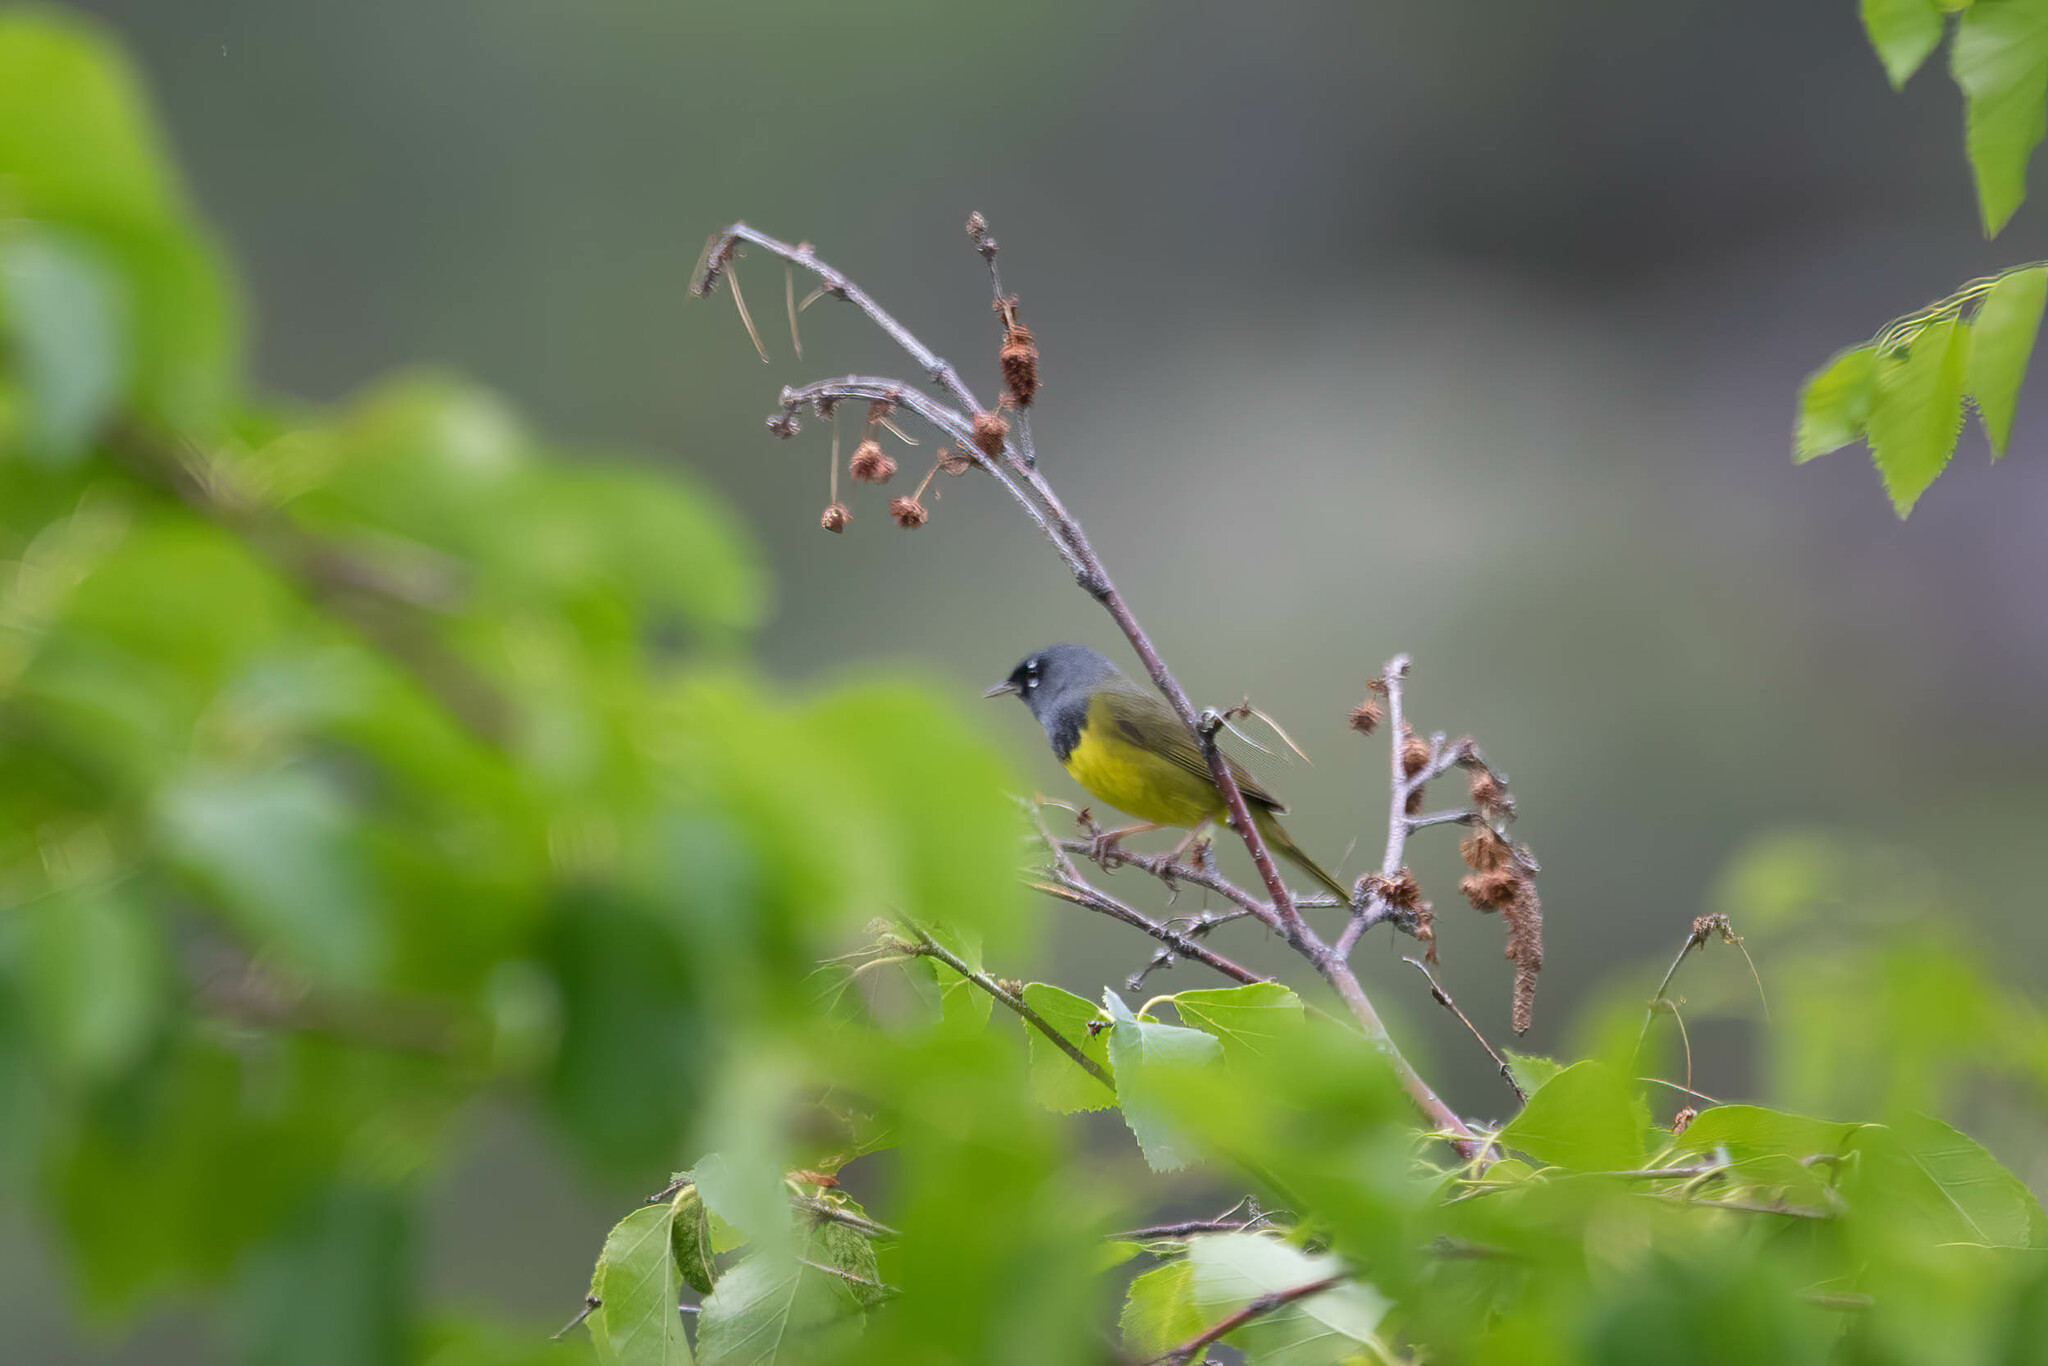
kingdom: Animalia
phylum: Chordata
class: Aves
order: Passeriformes
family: Parulidae
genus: Geothlypis
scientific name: Geothlypis tolmiei
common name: Macgillivray's warbler
